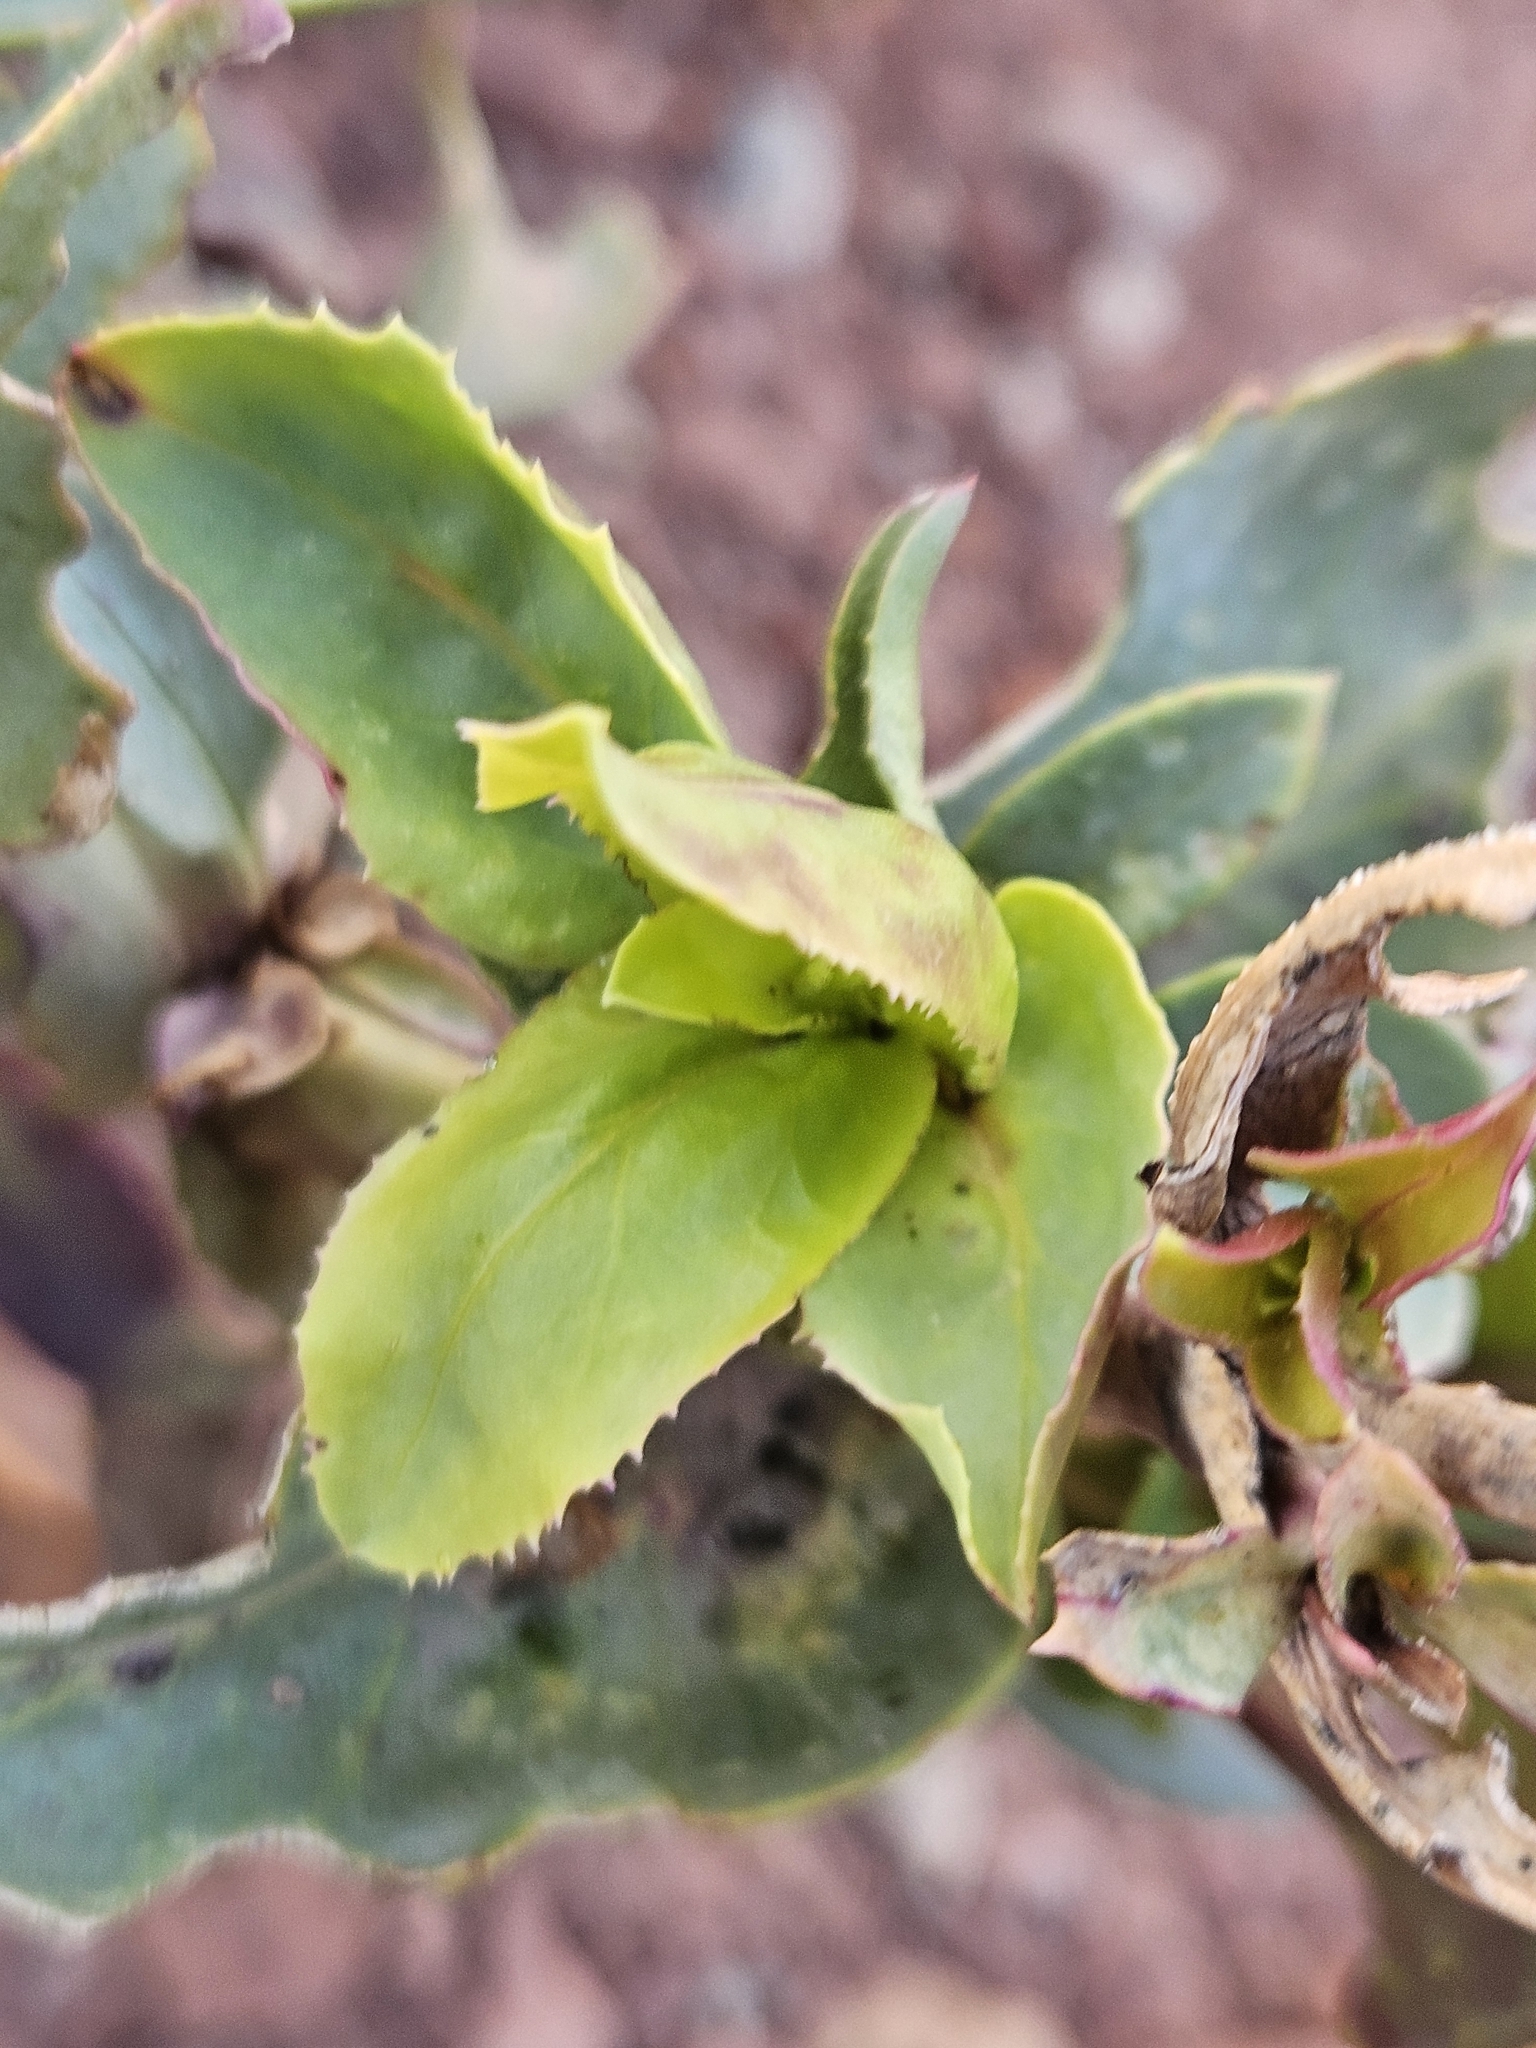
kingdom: Plantae
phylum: Tracheophyta
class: Magnoliopsida
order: Lamiales
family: Plantaginaceae
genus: Penstemon
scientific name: Penstemon palmeri
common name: Palmer penstemon
